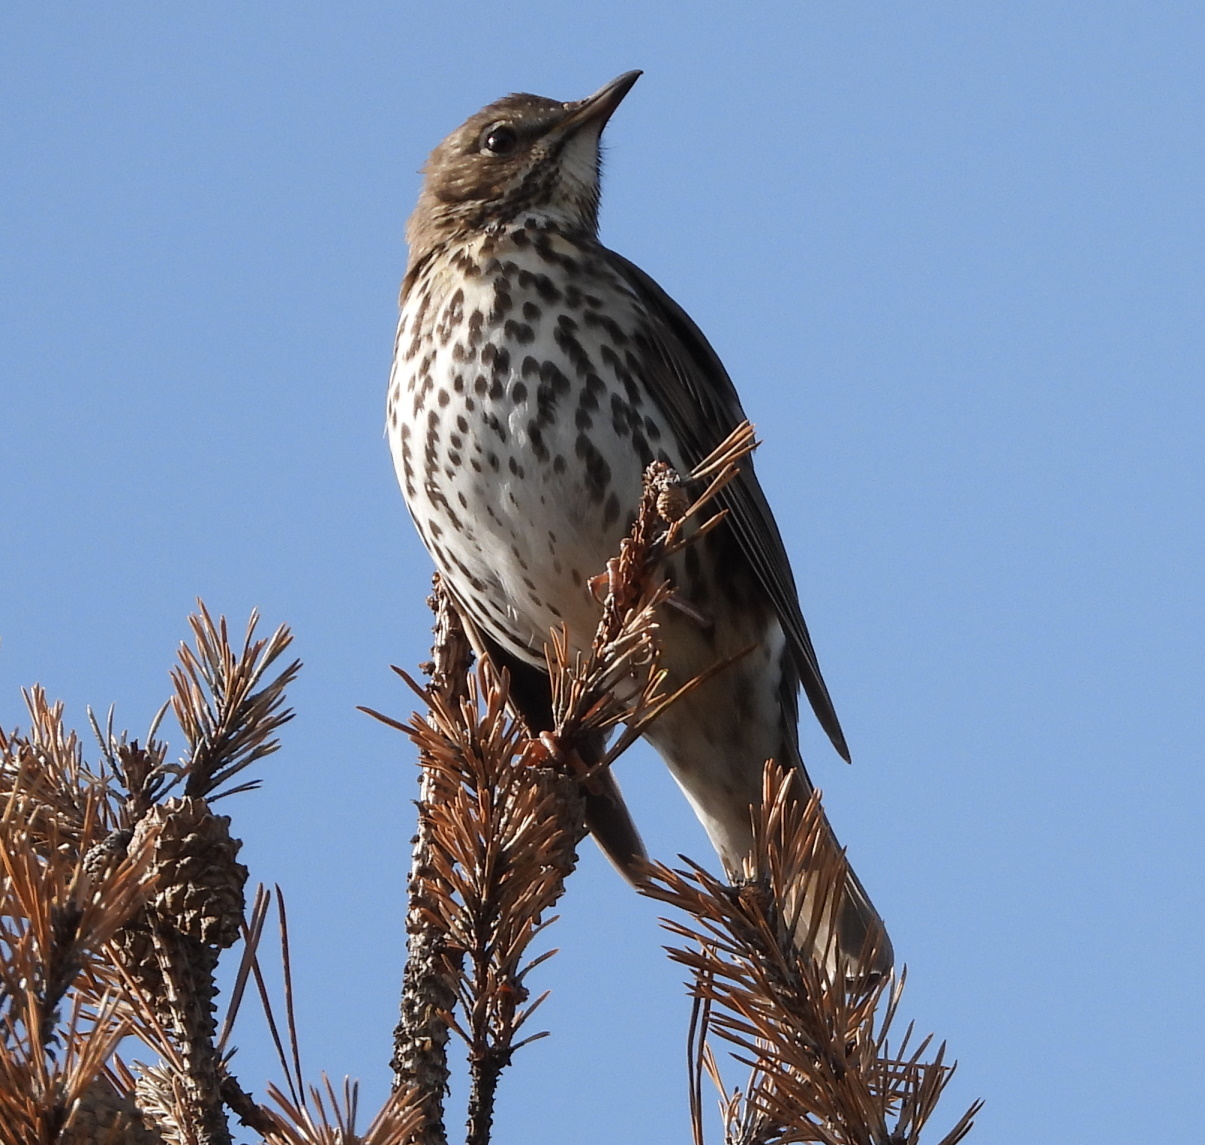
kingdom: Animalia
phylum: Chordata
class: Aves
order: Passeriformes
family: Turdidae
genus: Turdus
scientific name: Turdus philomelos
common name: Song thrush
